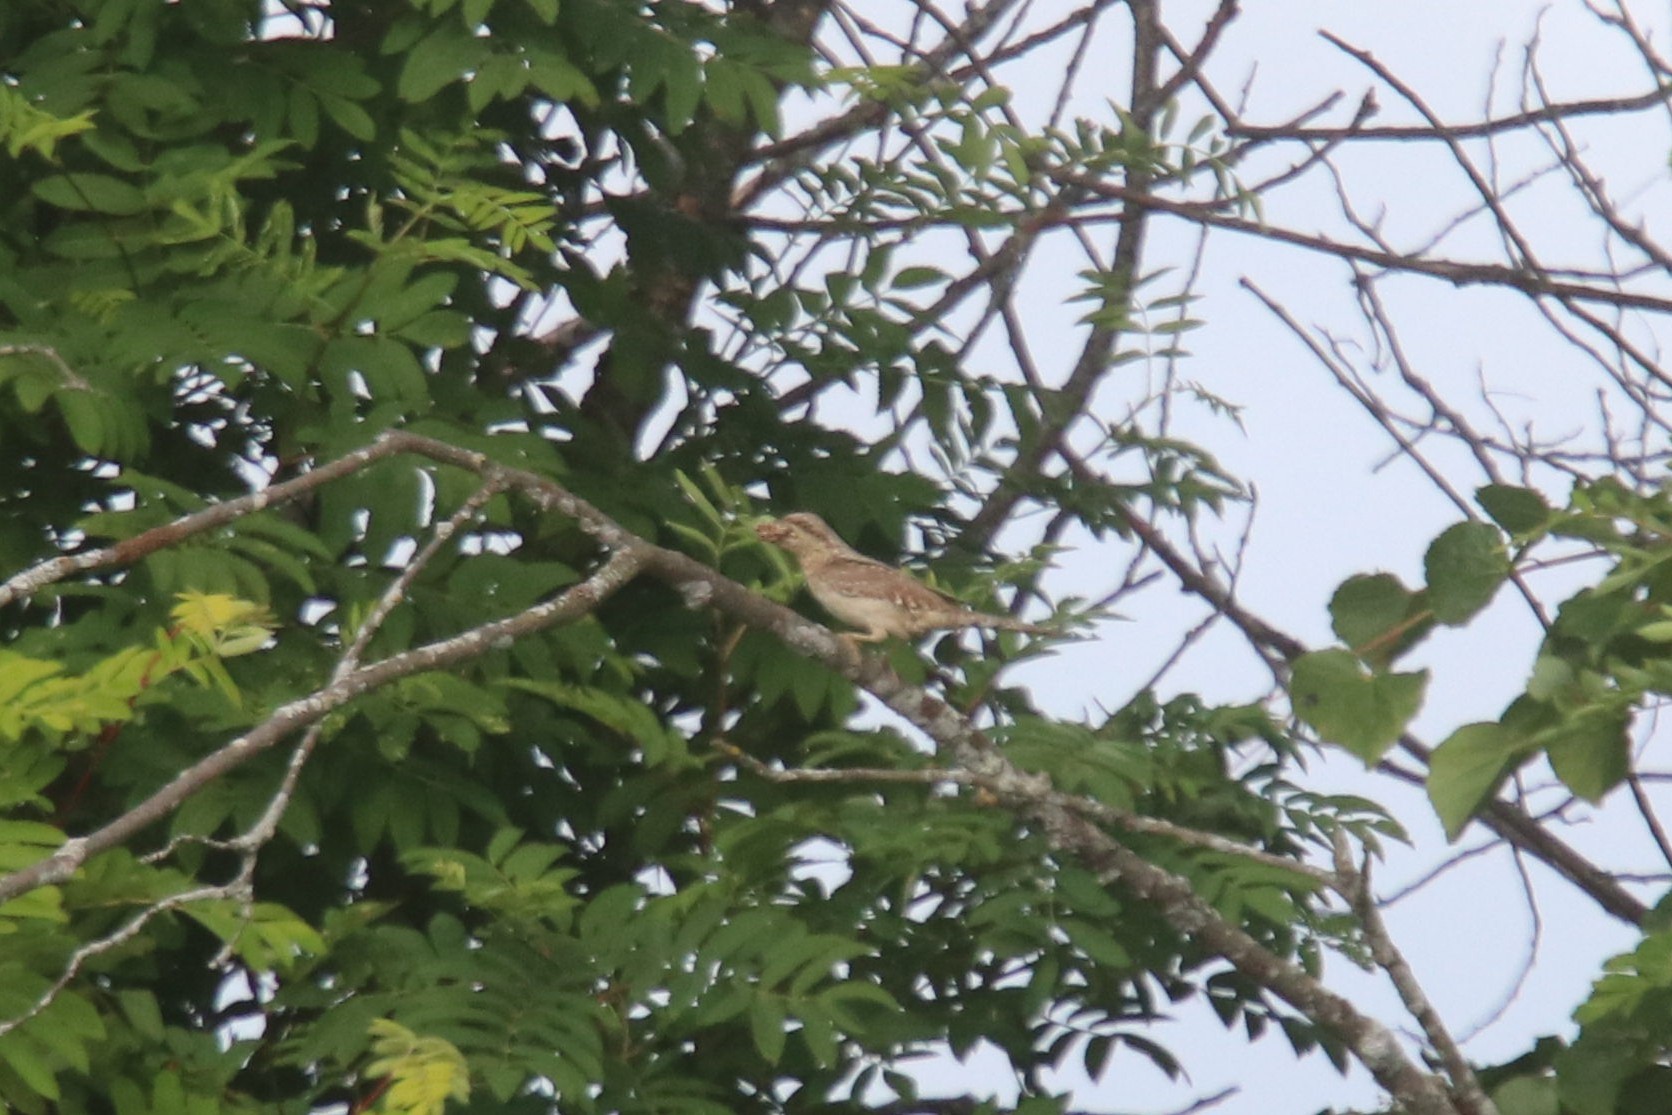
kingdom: Animalia
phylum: Chordata
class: Aves
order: Piciformes
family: Picidae
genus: Jynx
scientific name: Jynx torquilla
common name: Eurasian wryneck
